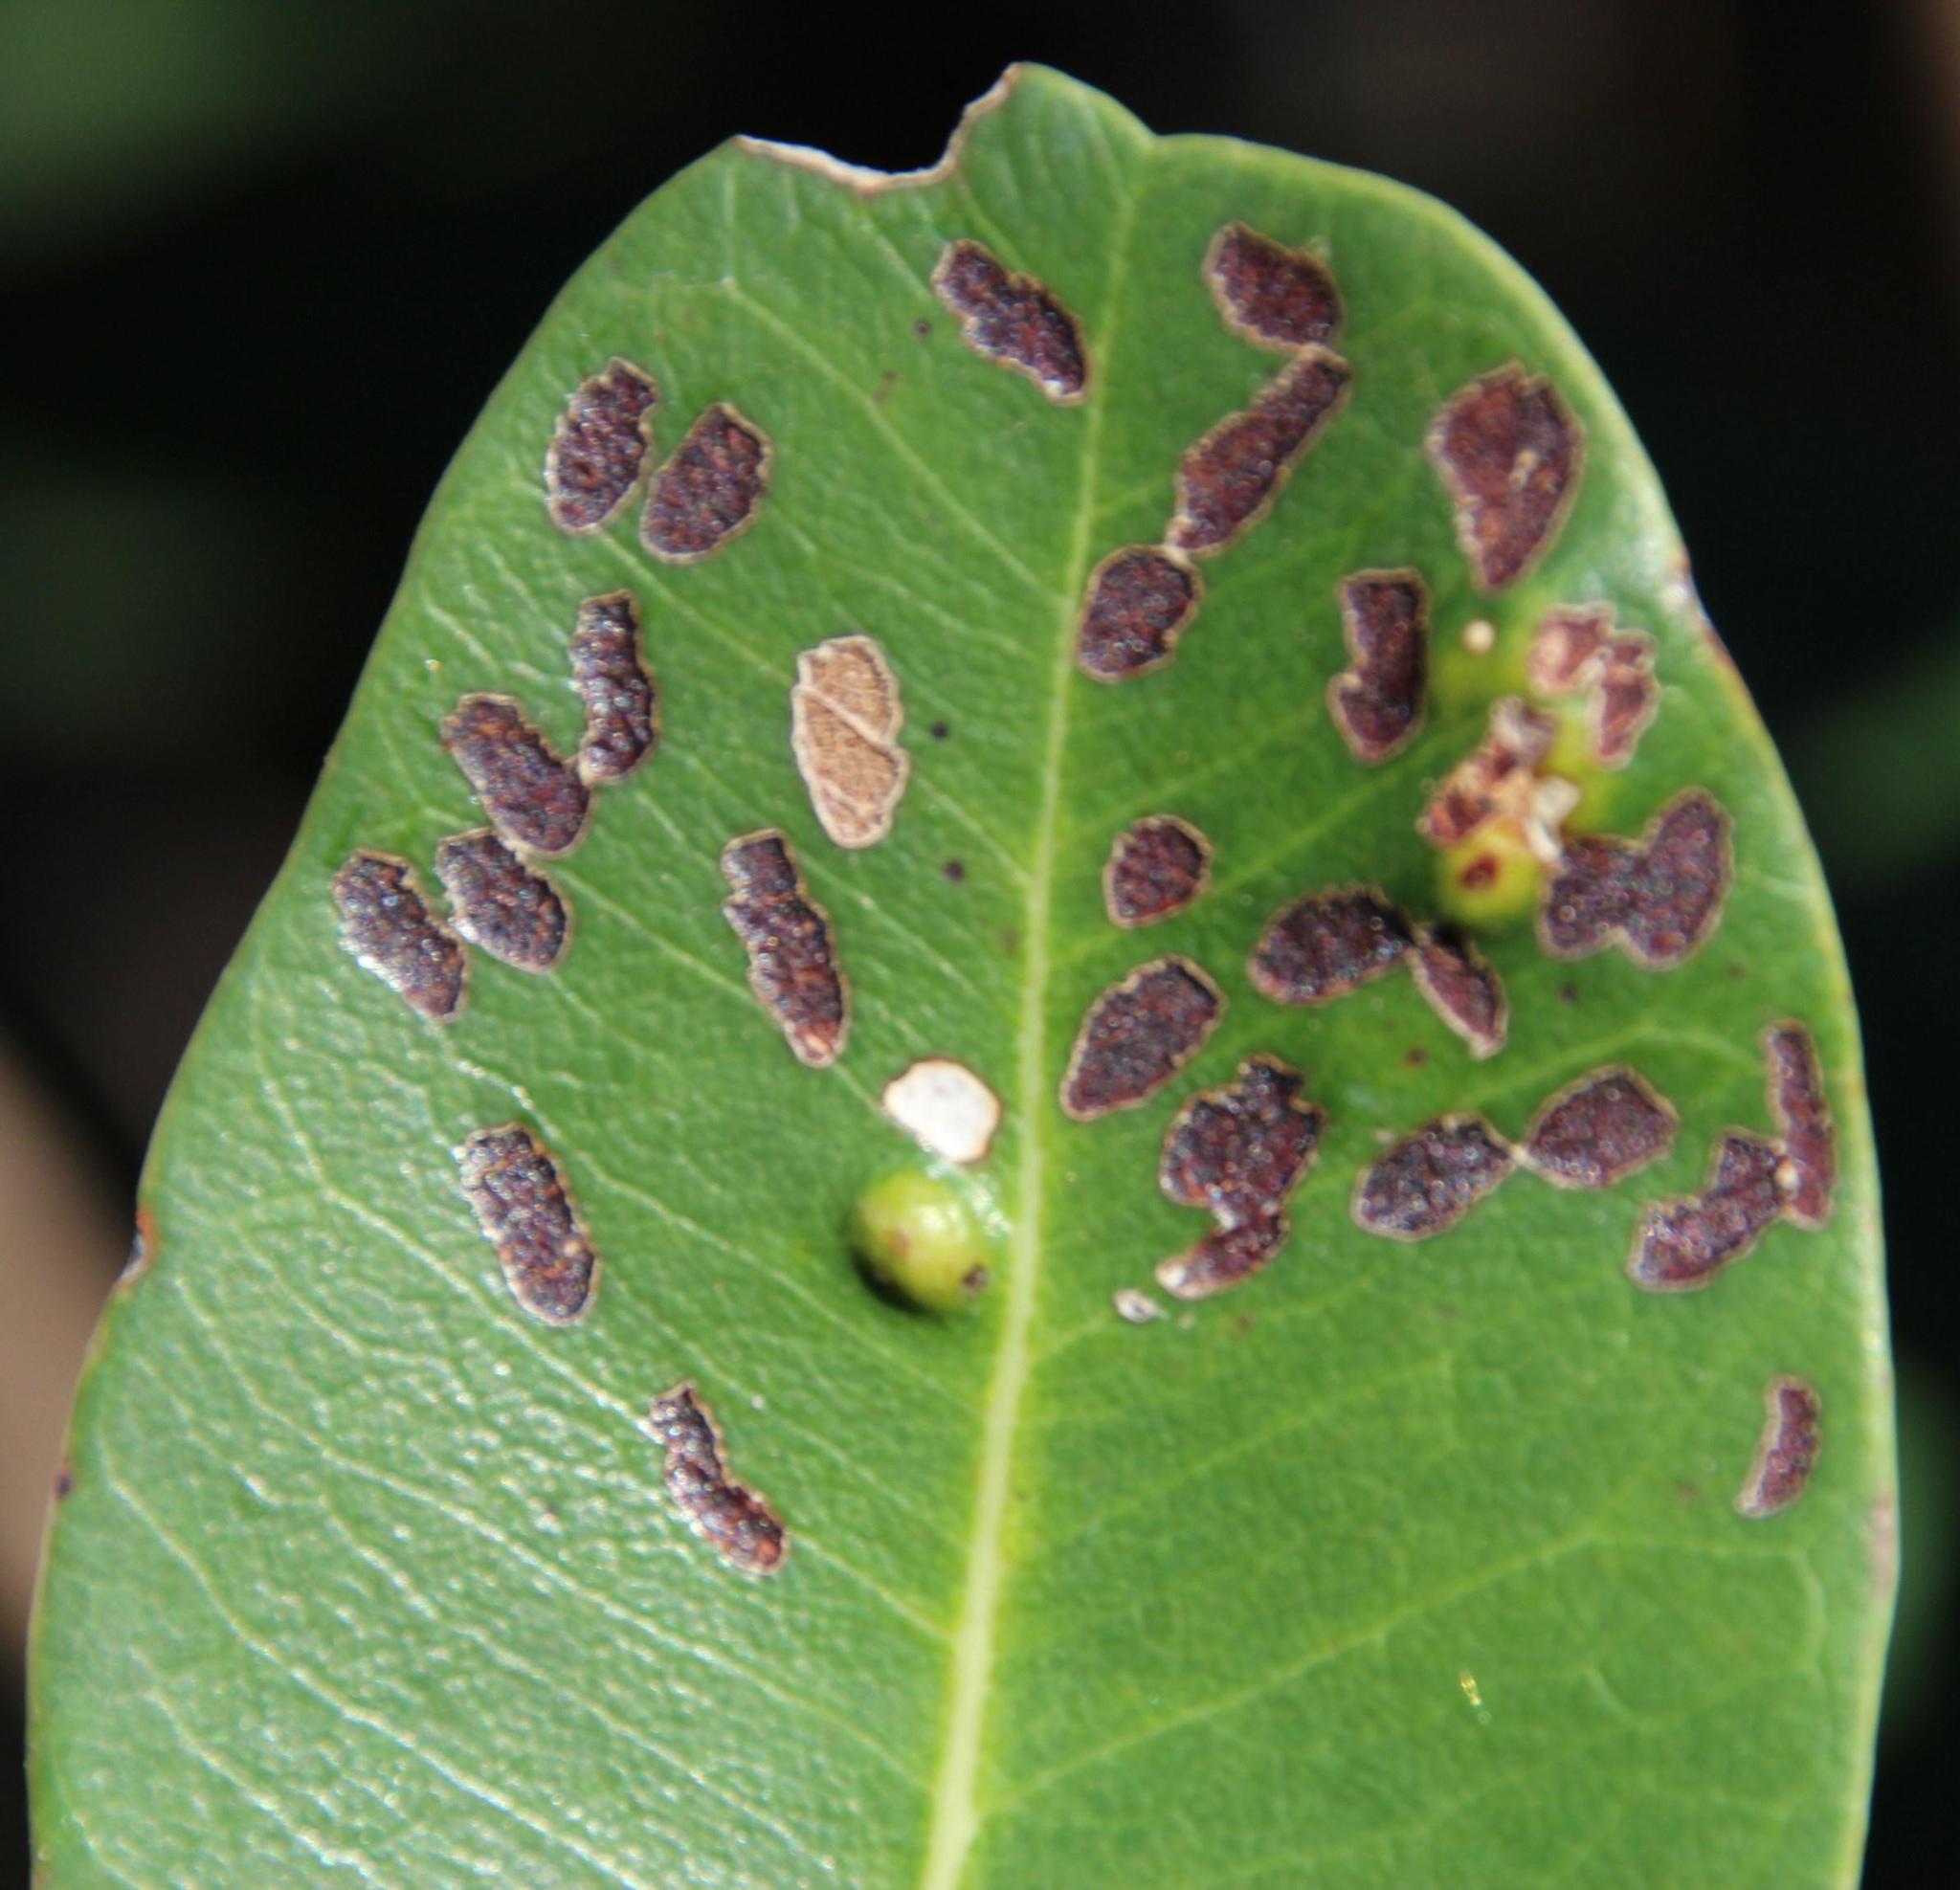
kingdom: Plantae
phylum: Tracheophyta
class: Magnoliopsida
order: Ericales
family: Sapotaceae
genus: Sideroxylon
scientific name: Sideroxylon inerme
